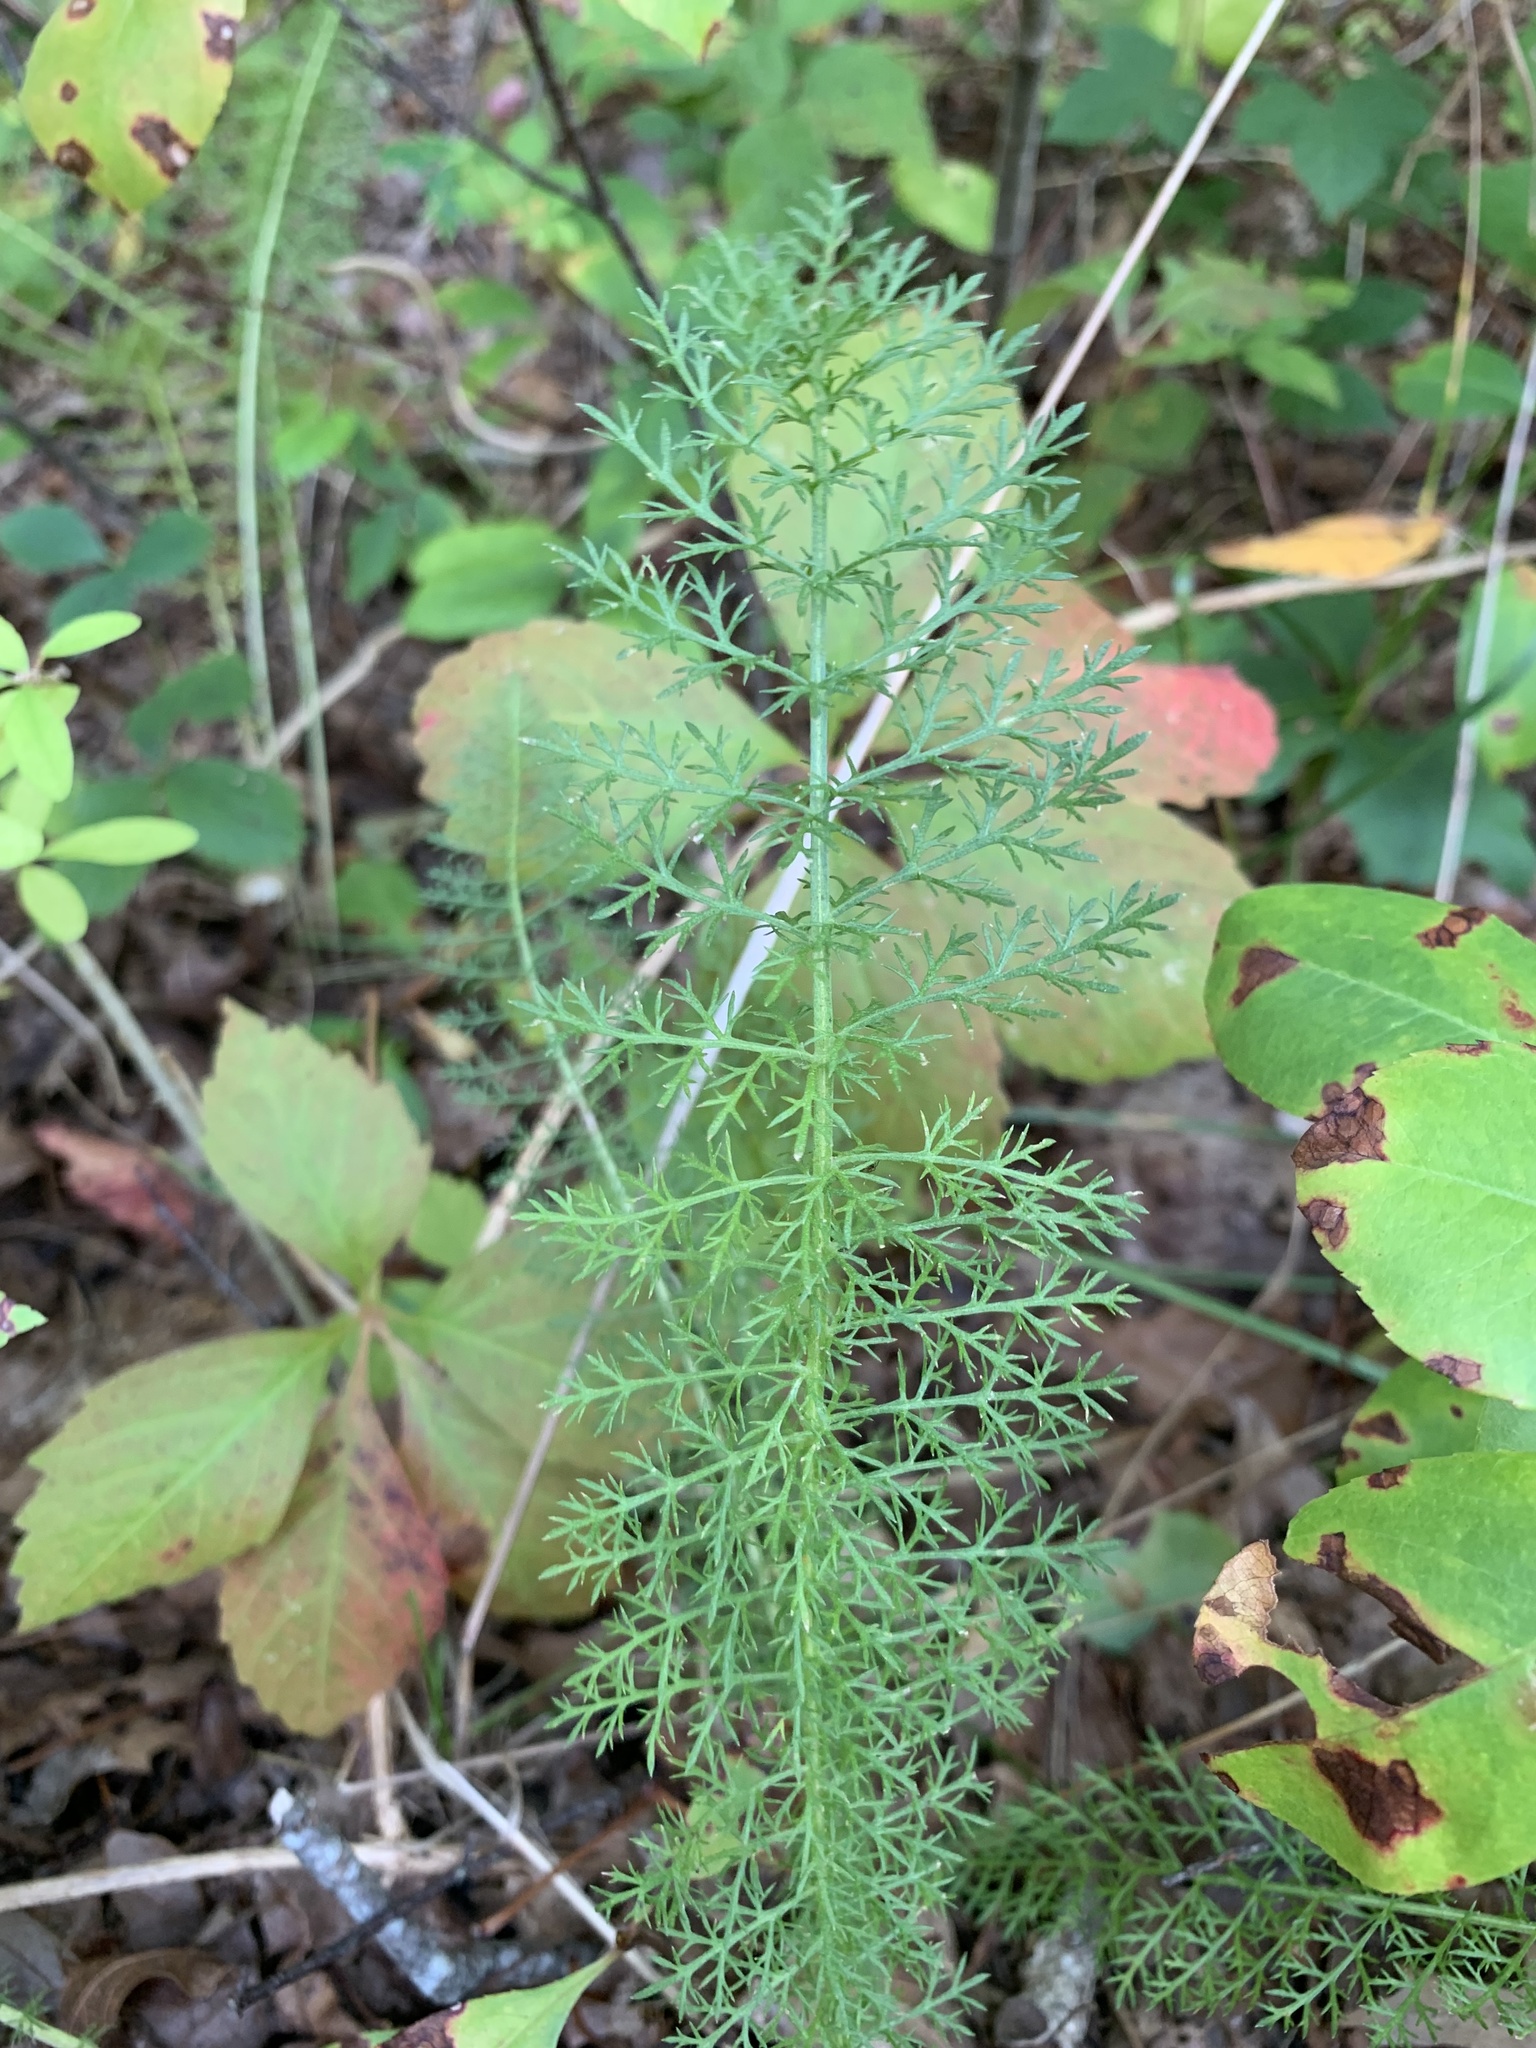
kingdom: Plantae
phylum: Tracheophyta
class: Magnoliopsida
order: Asterales
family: Asteraceae
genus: Achillea
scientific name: Achillea millefolium
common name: Yarrow
